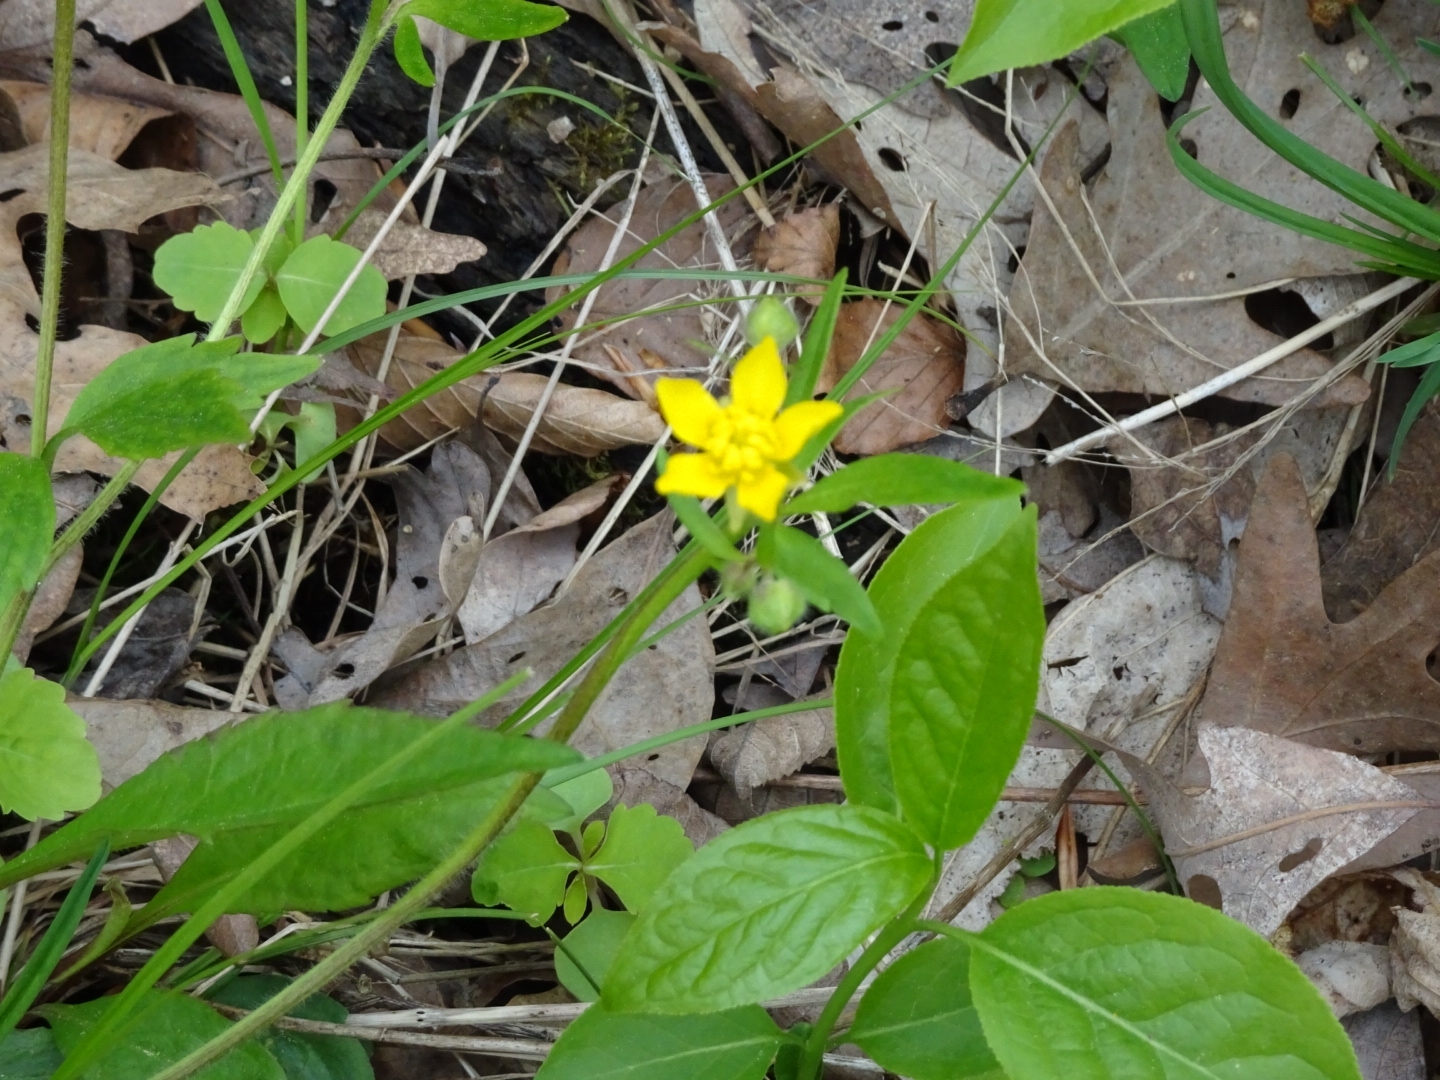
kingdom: Plantae
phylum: Tracheophyta
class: Liliopsida
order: Asparagales
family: Hypoxidaceae
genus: Hypoxis
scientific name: Hypoxis hirsuta
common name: Common goldstar
